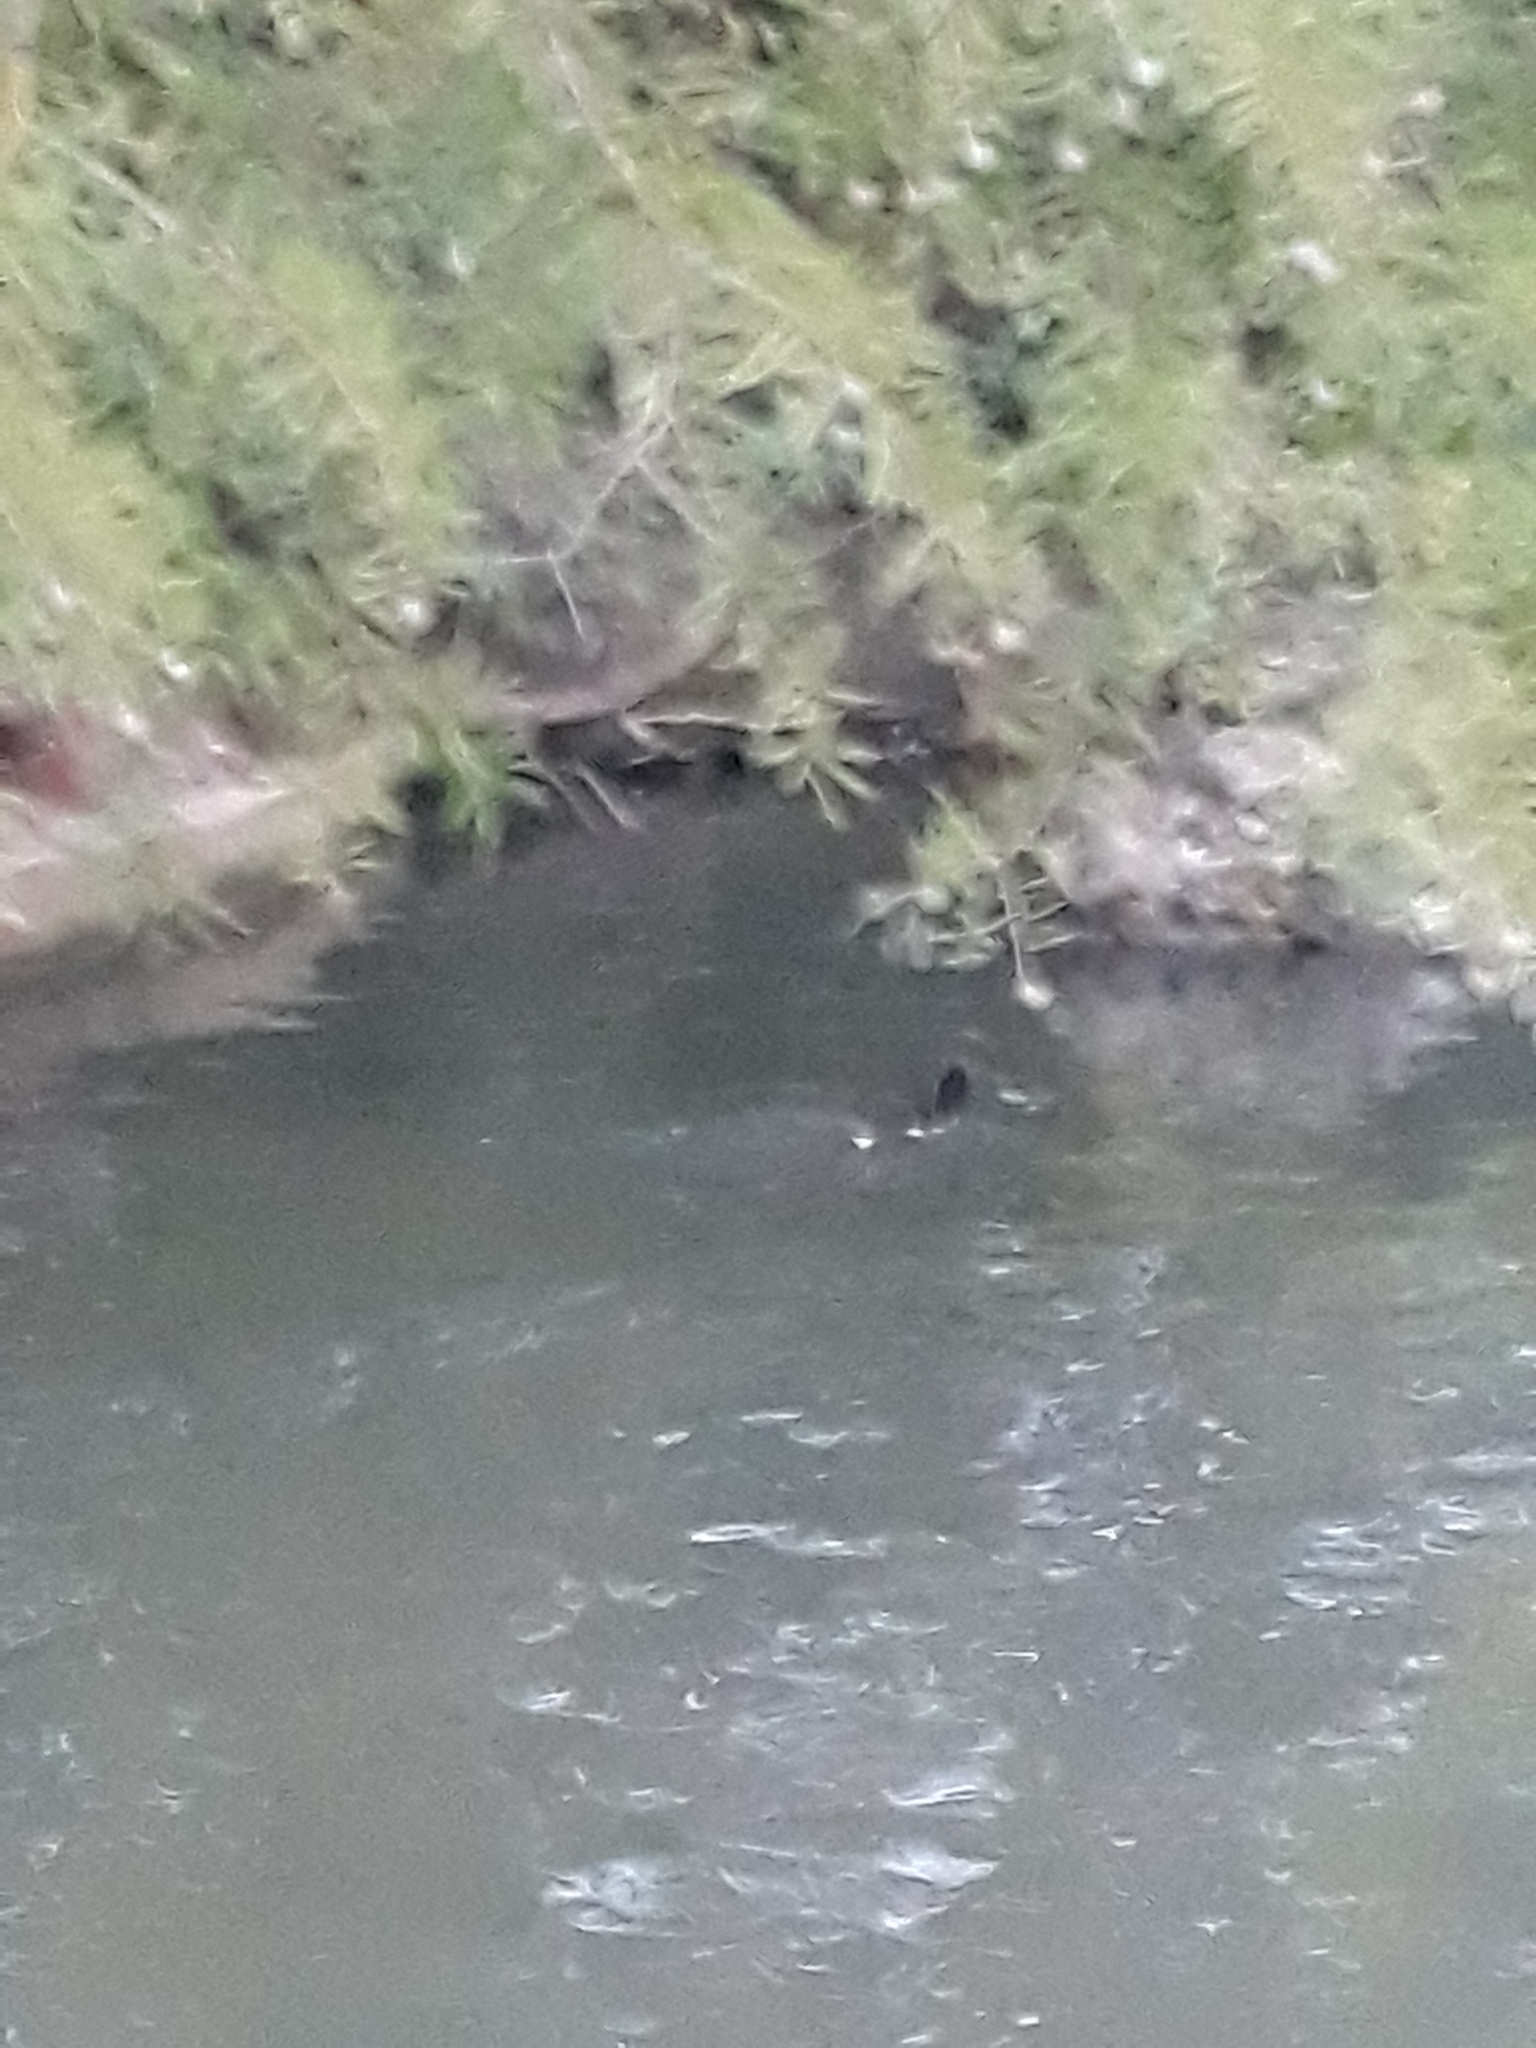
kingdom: Animalia
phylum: Chordata
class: Aves
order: Gruiformes
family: Rallidae
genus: Gallinula
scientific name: Gallinula chloropus
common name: Common moorhen
